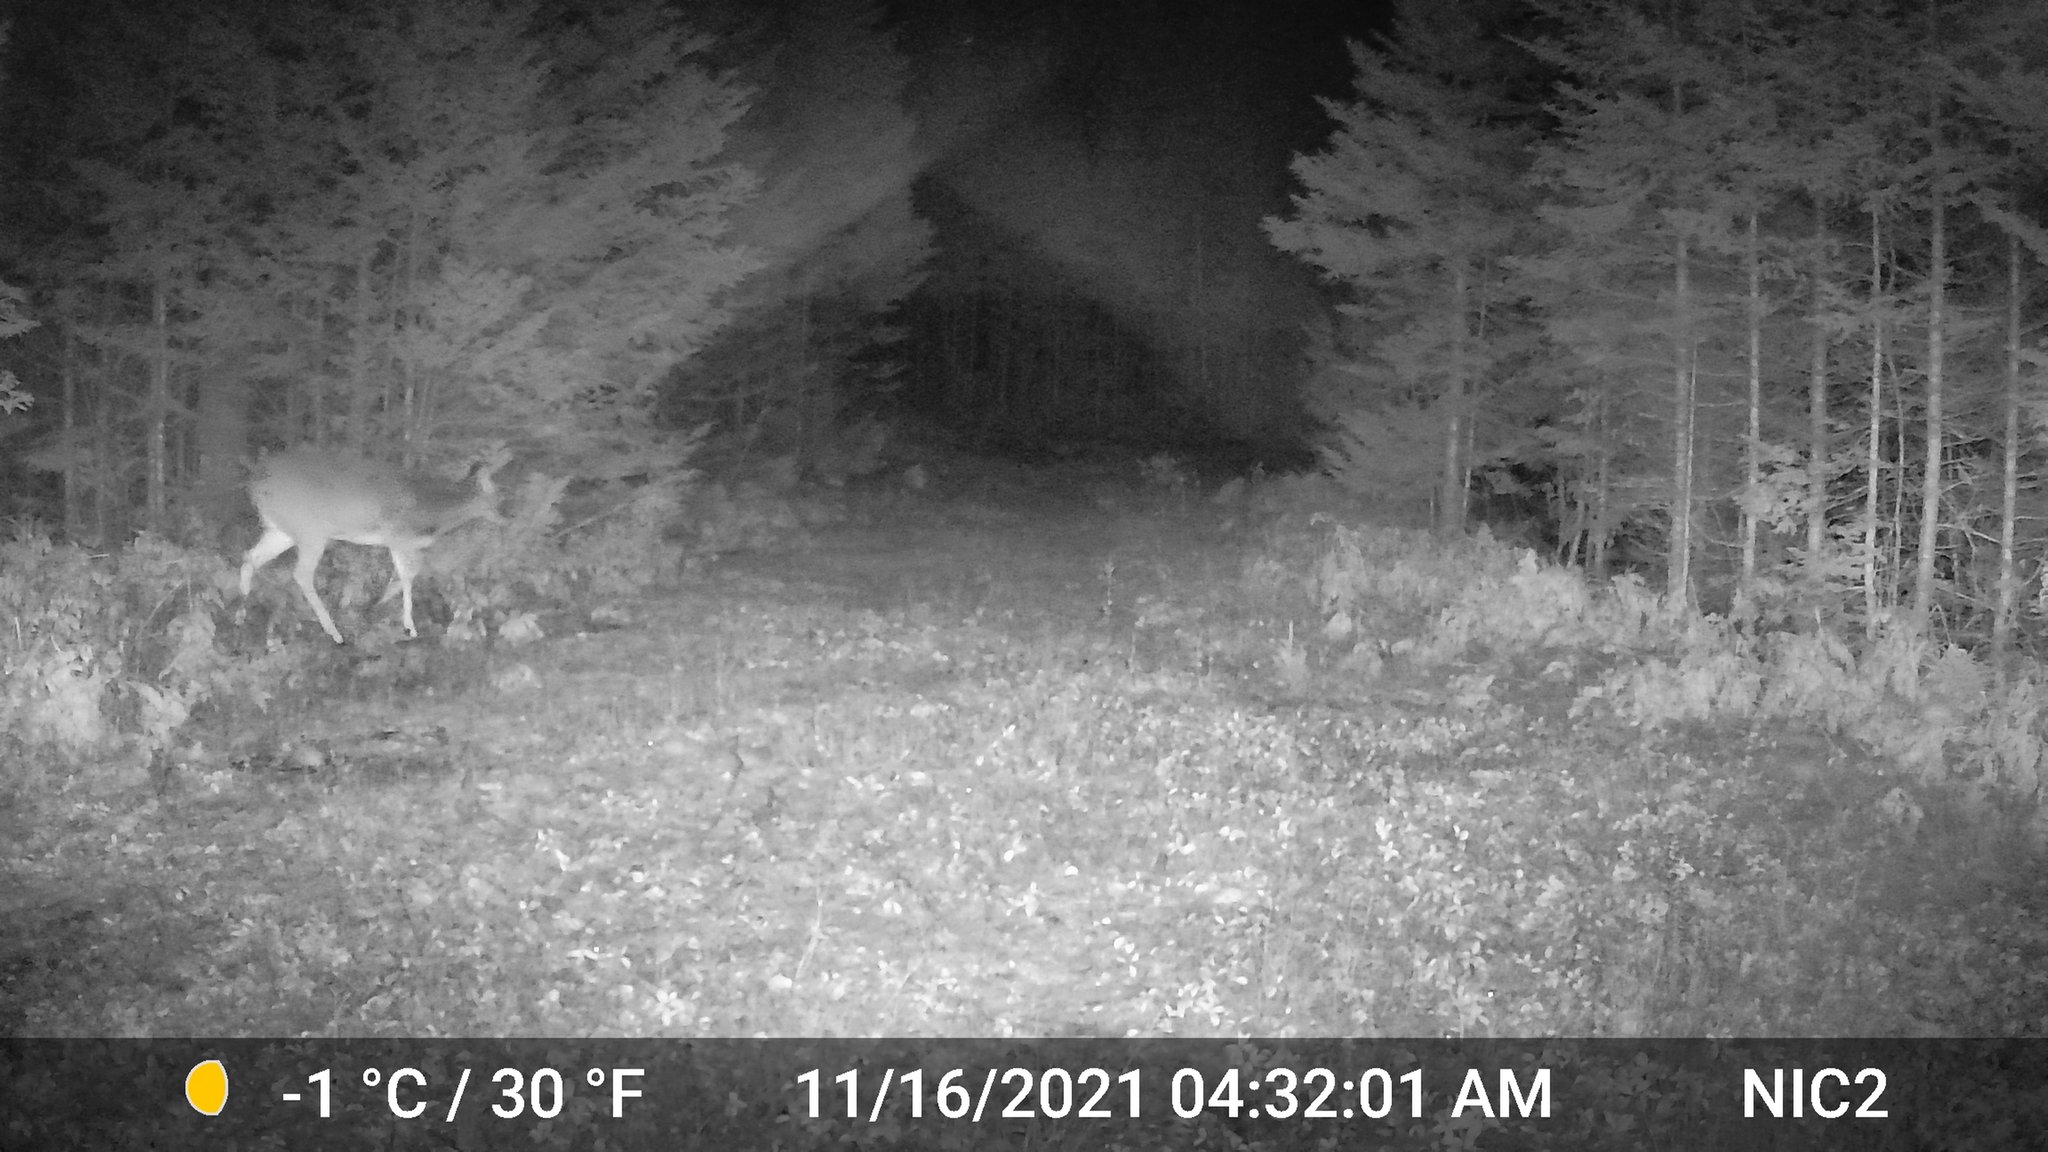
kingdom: Animalia
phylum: Chordata
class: Mammalia
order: Artiodactyla
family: Cervidae
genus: Odocoileus
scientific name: Odocoileus virginianus
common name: White-tailed deer
